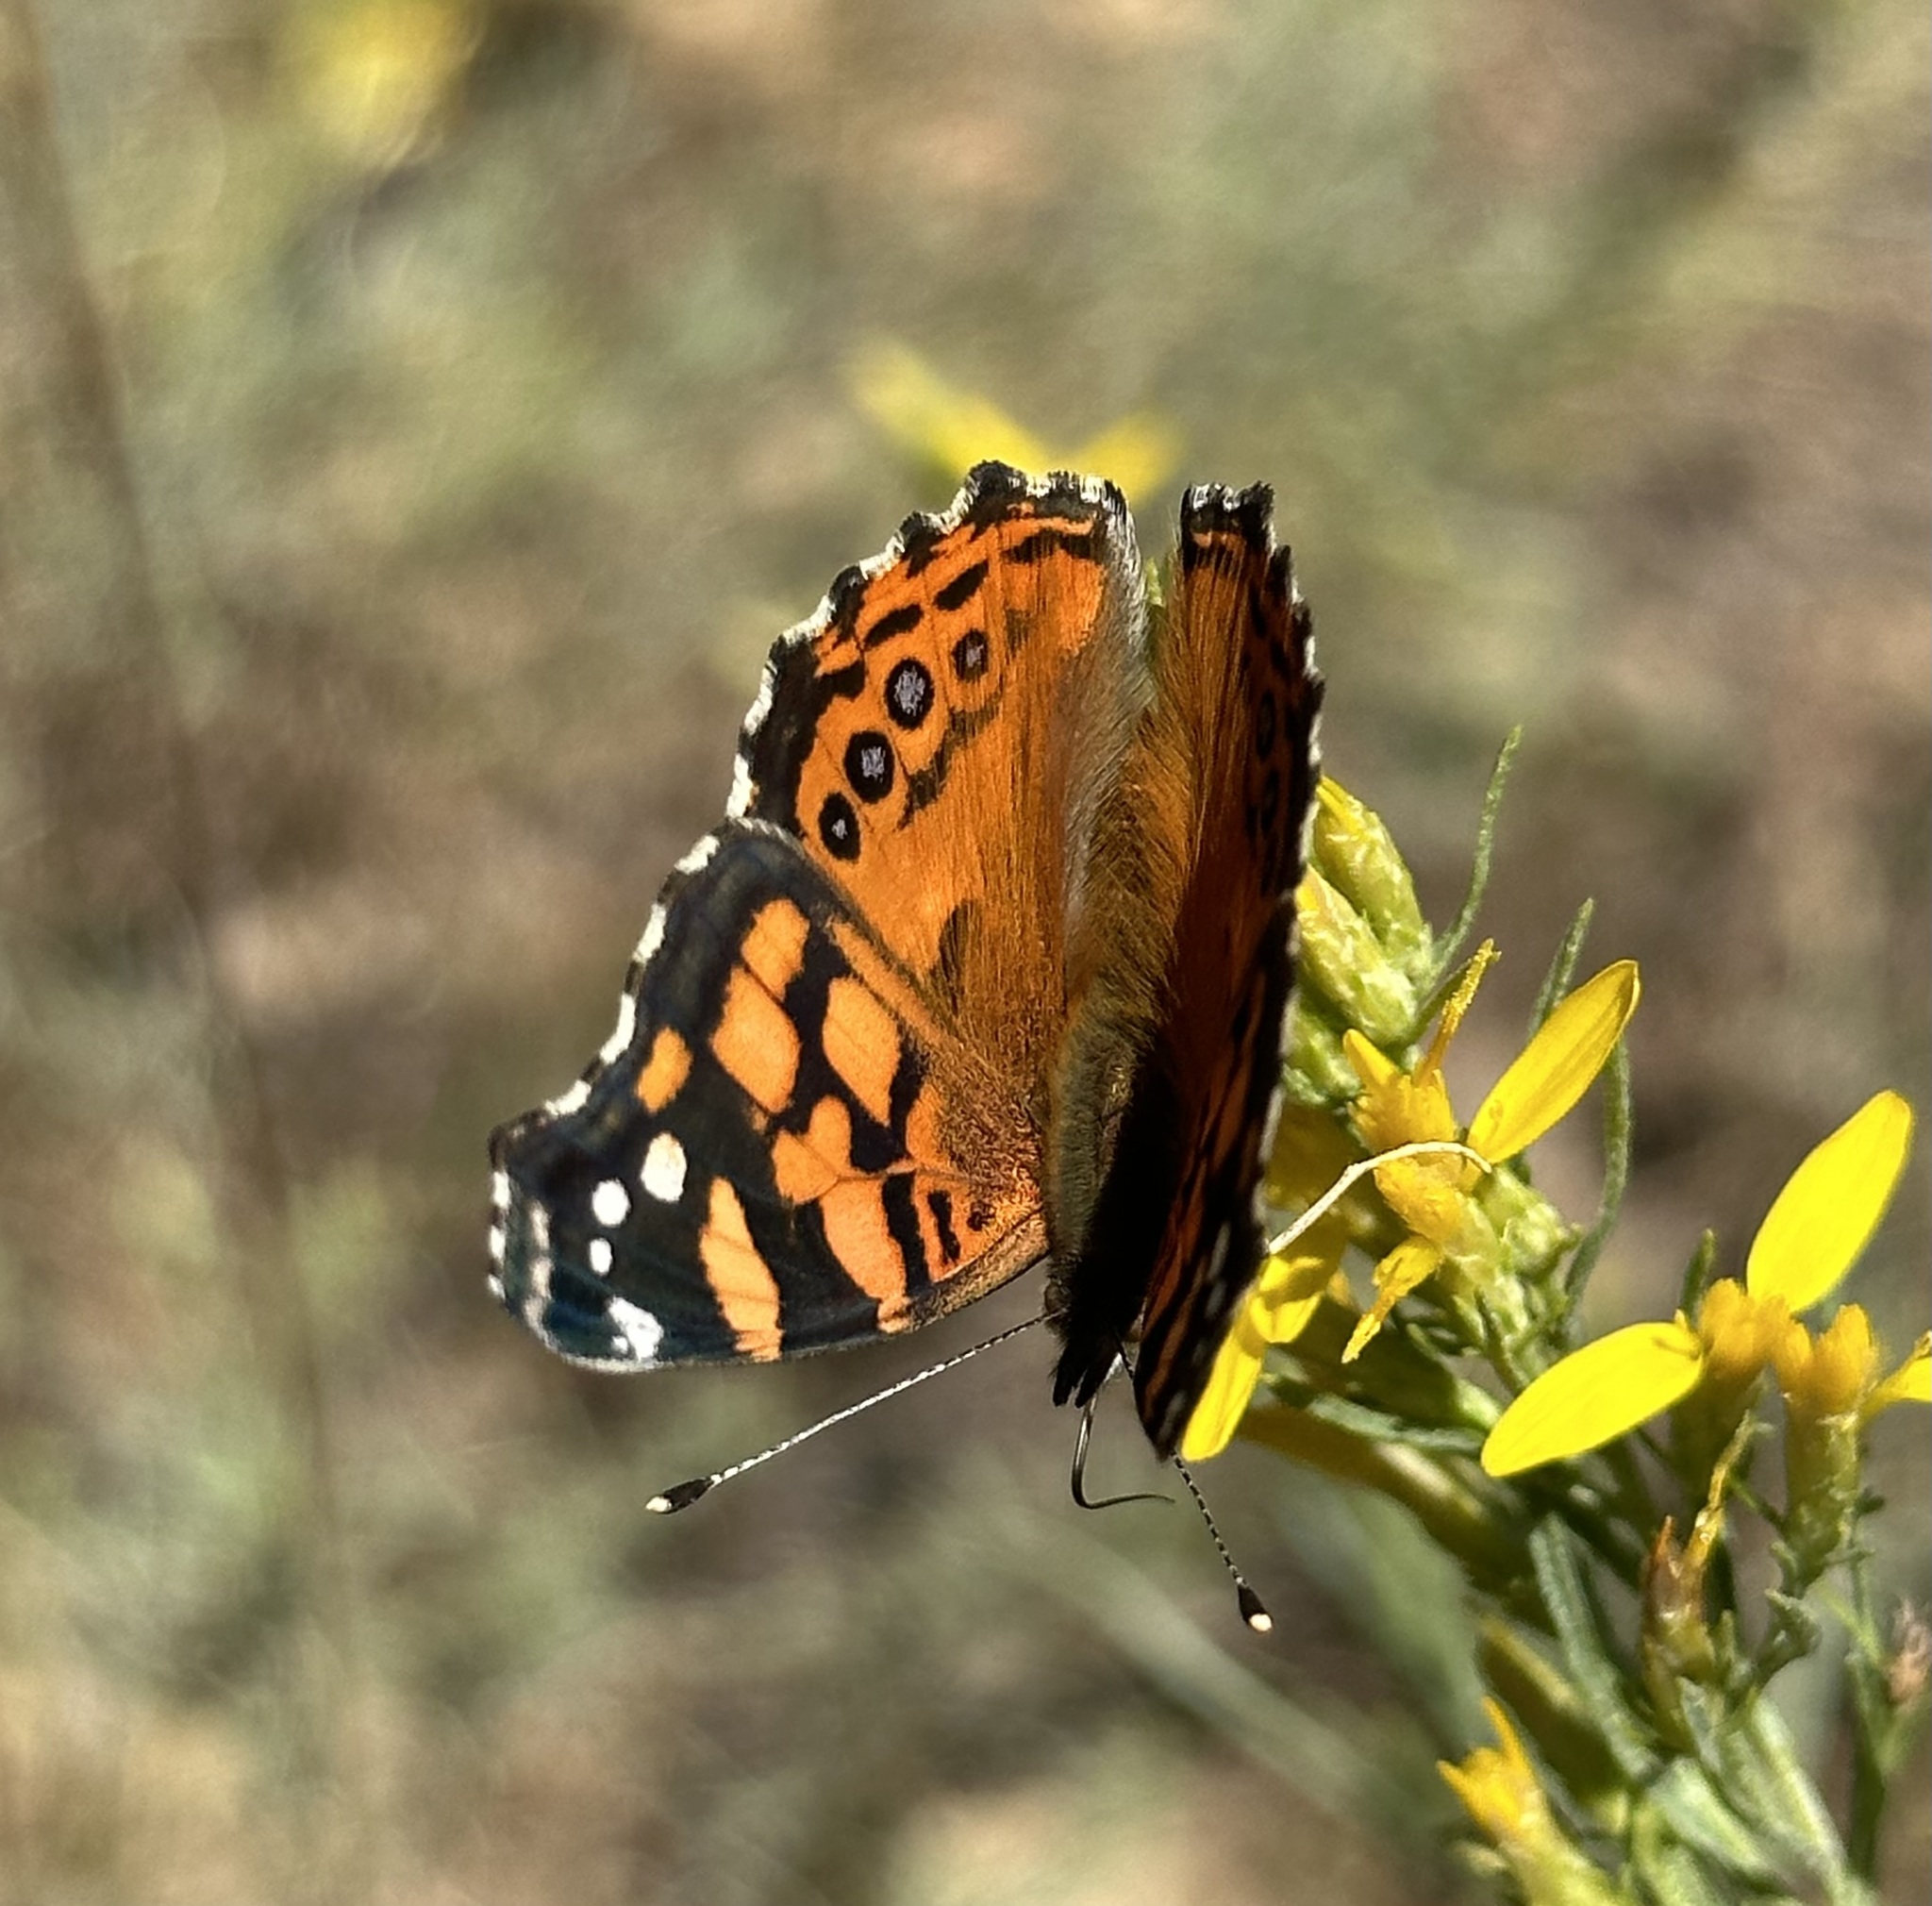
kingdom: Animalia
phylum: Arthropoda
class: Insecta
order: Lepidoptera
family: Nymphalidae
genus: Vanessa
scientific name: Vanessa annabella
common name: West coast lady
